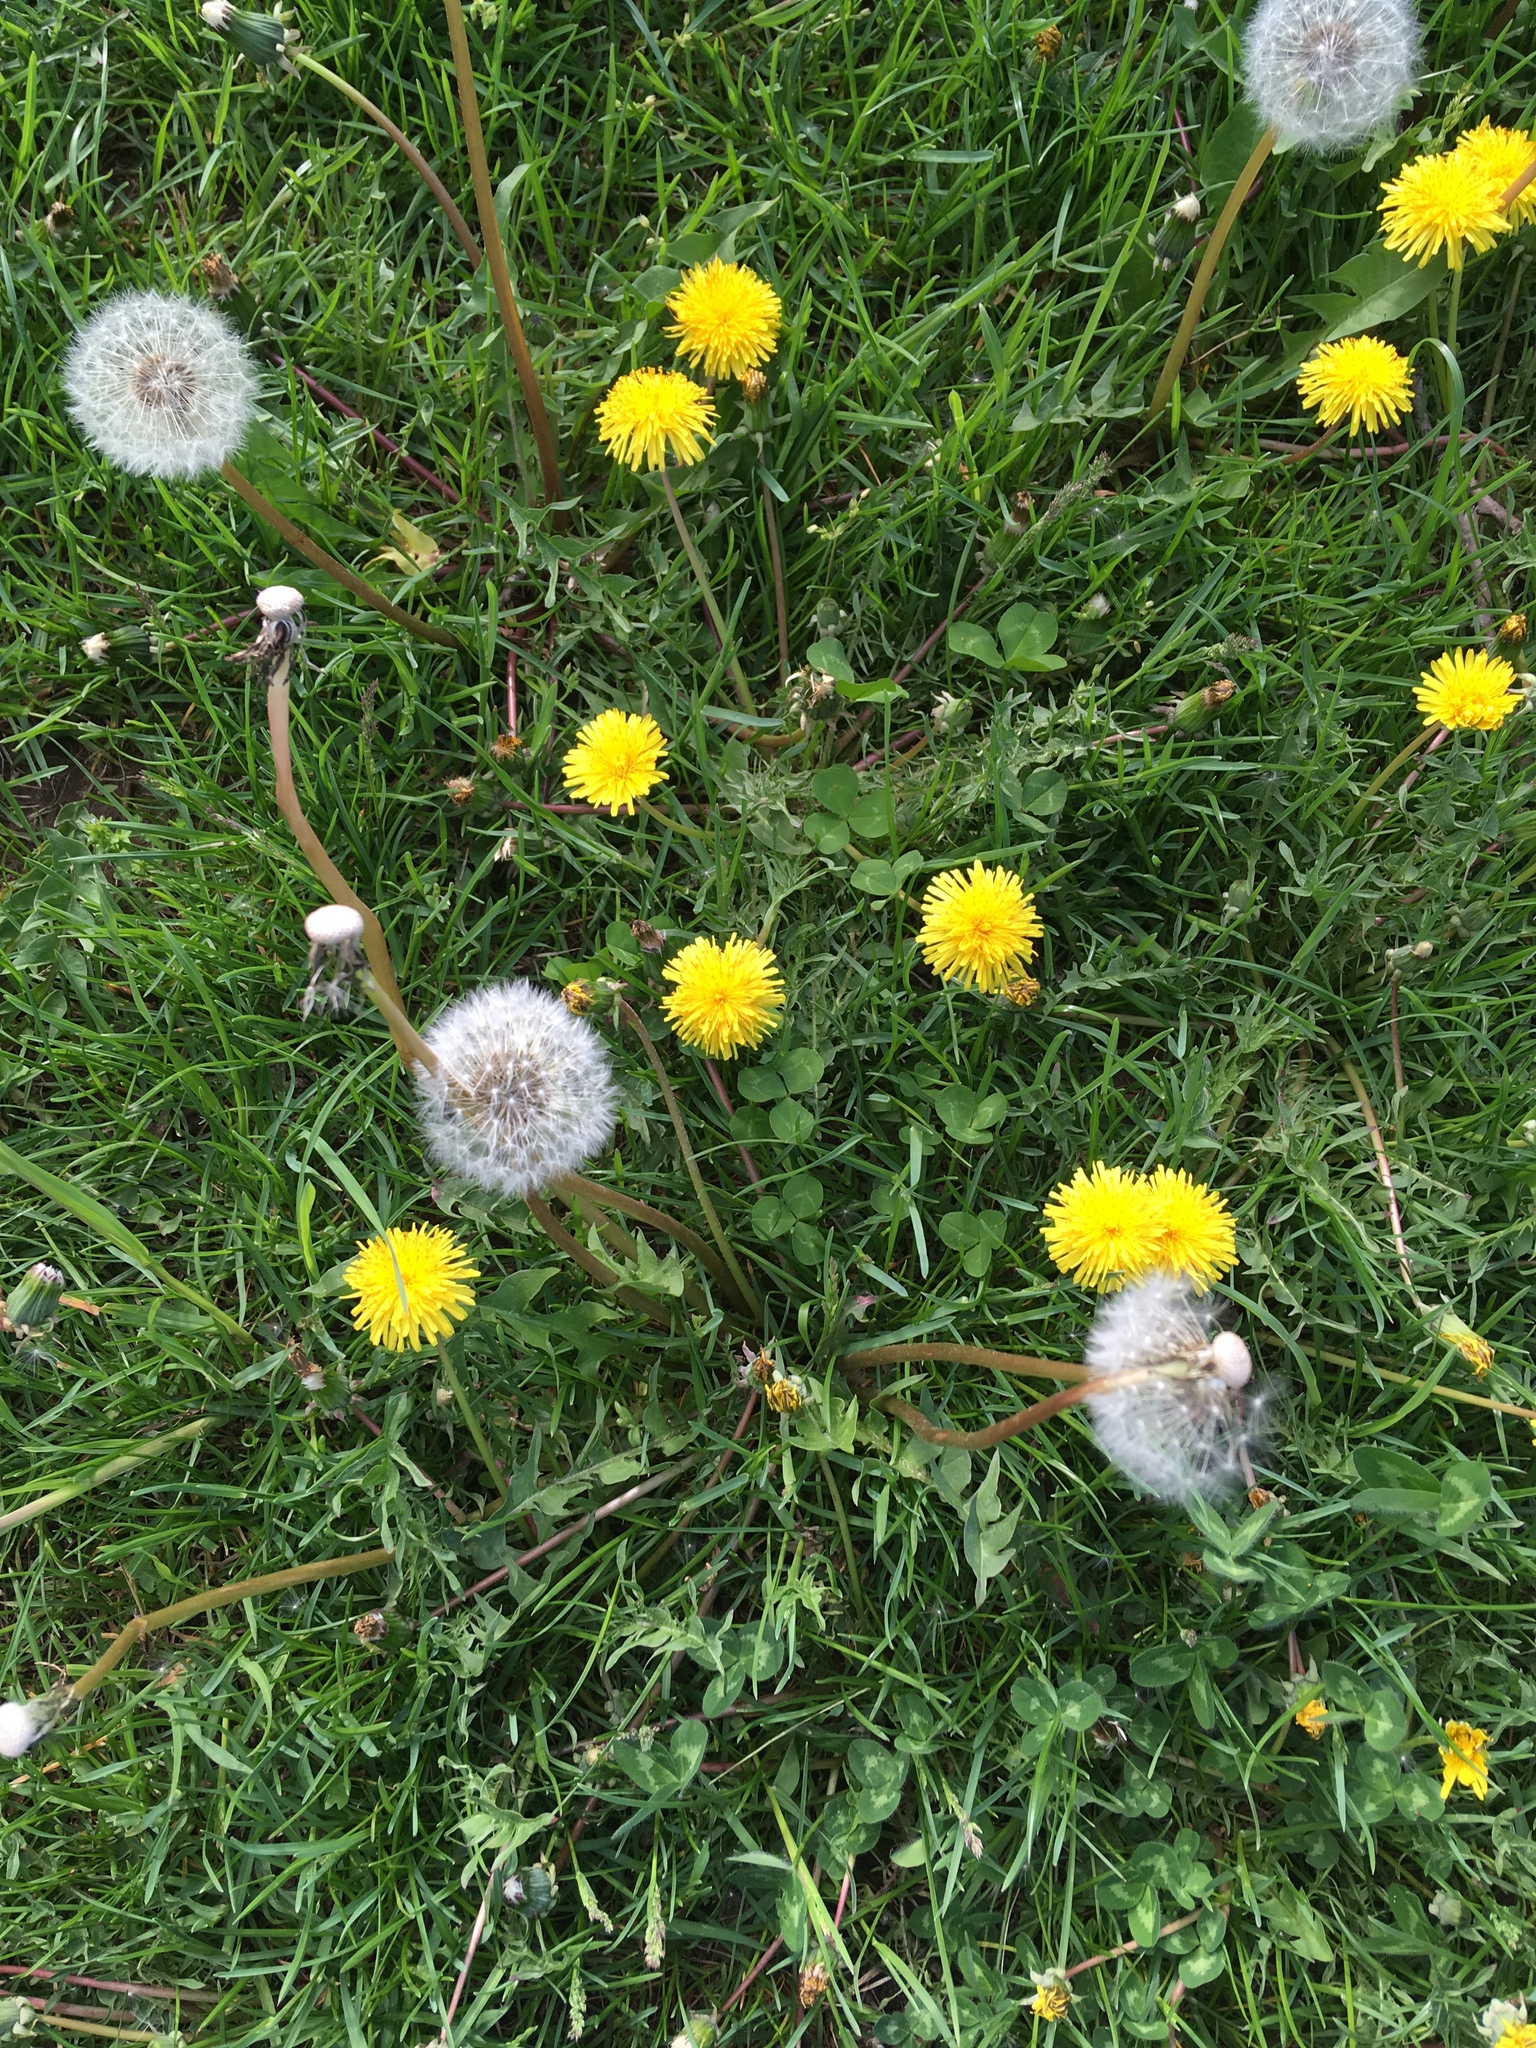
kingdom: Plantae
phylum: Tracheophyta
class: Magnoliopsida
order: Asterales
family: Asteraceae
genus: Taraxacum
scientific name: Taraxacum officinale
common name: Common dandelion
